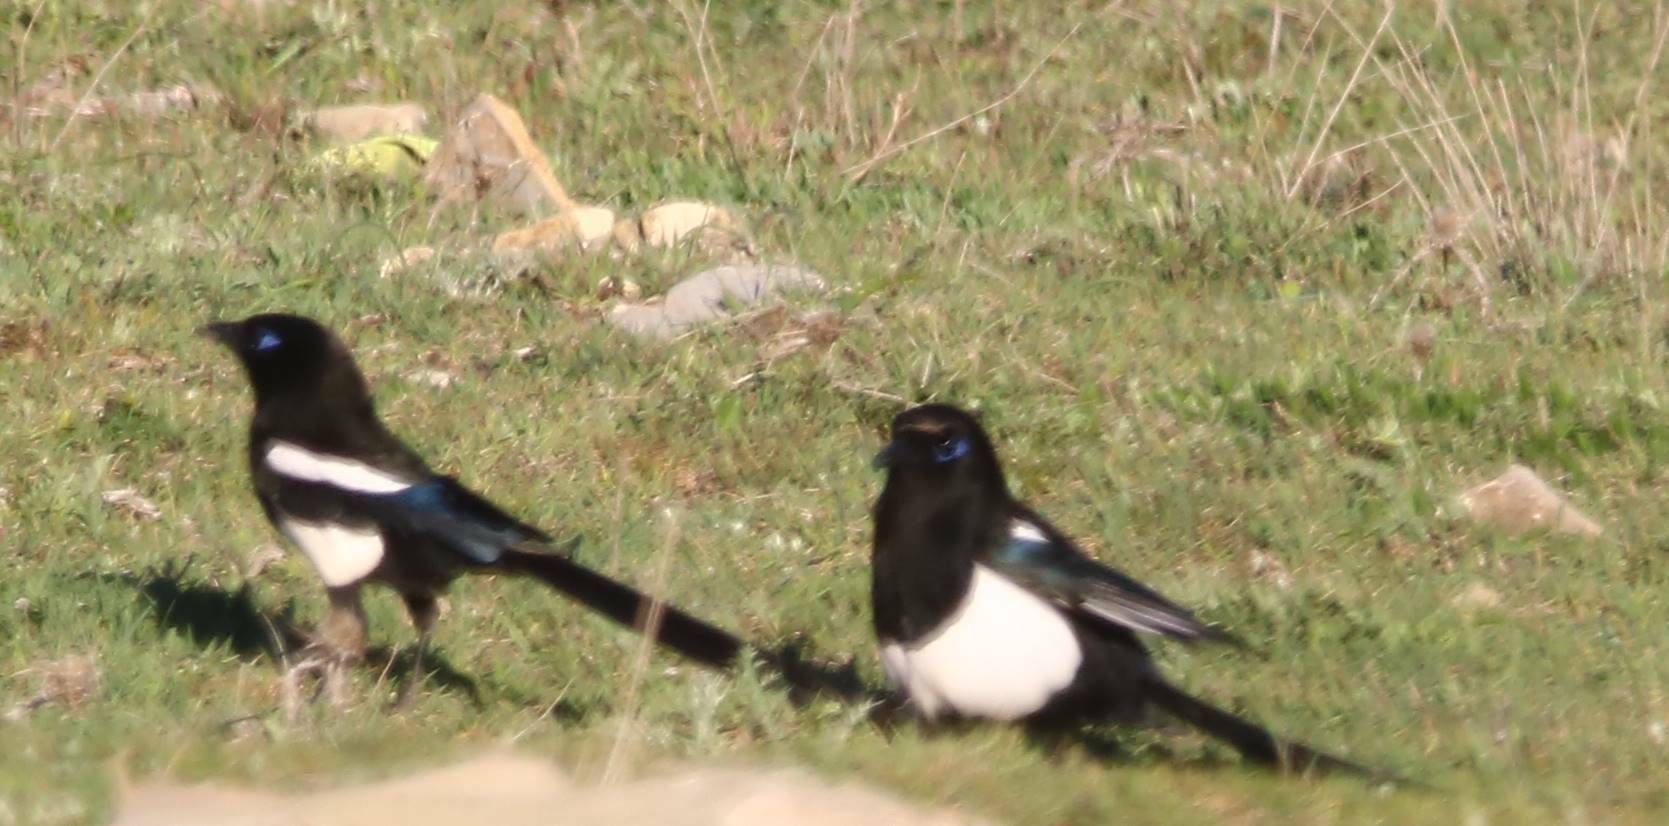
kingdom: Animalia
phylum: Chordata
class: Aves
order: Passeriformes
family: Corvidae
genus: Pica
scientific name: Pica mauritanica
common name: Maghreb magpie
